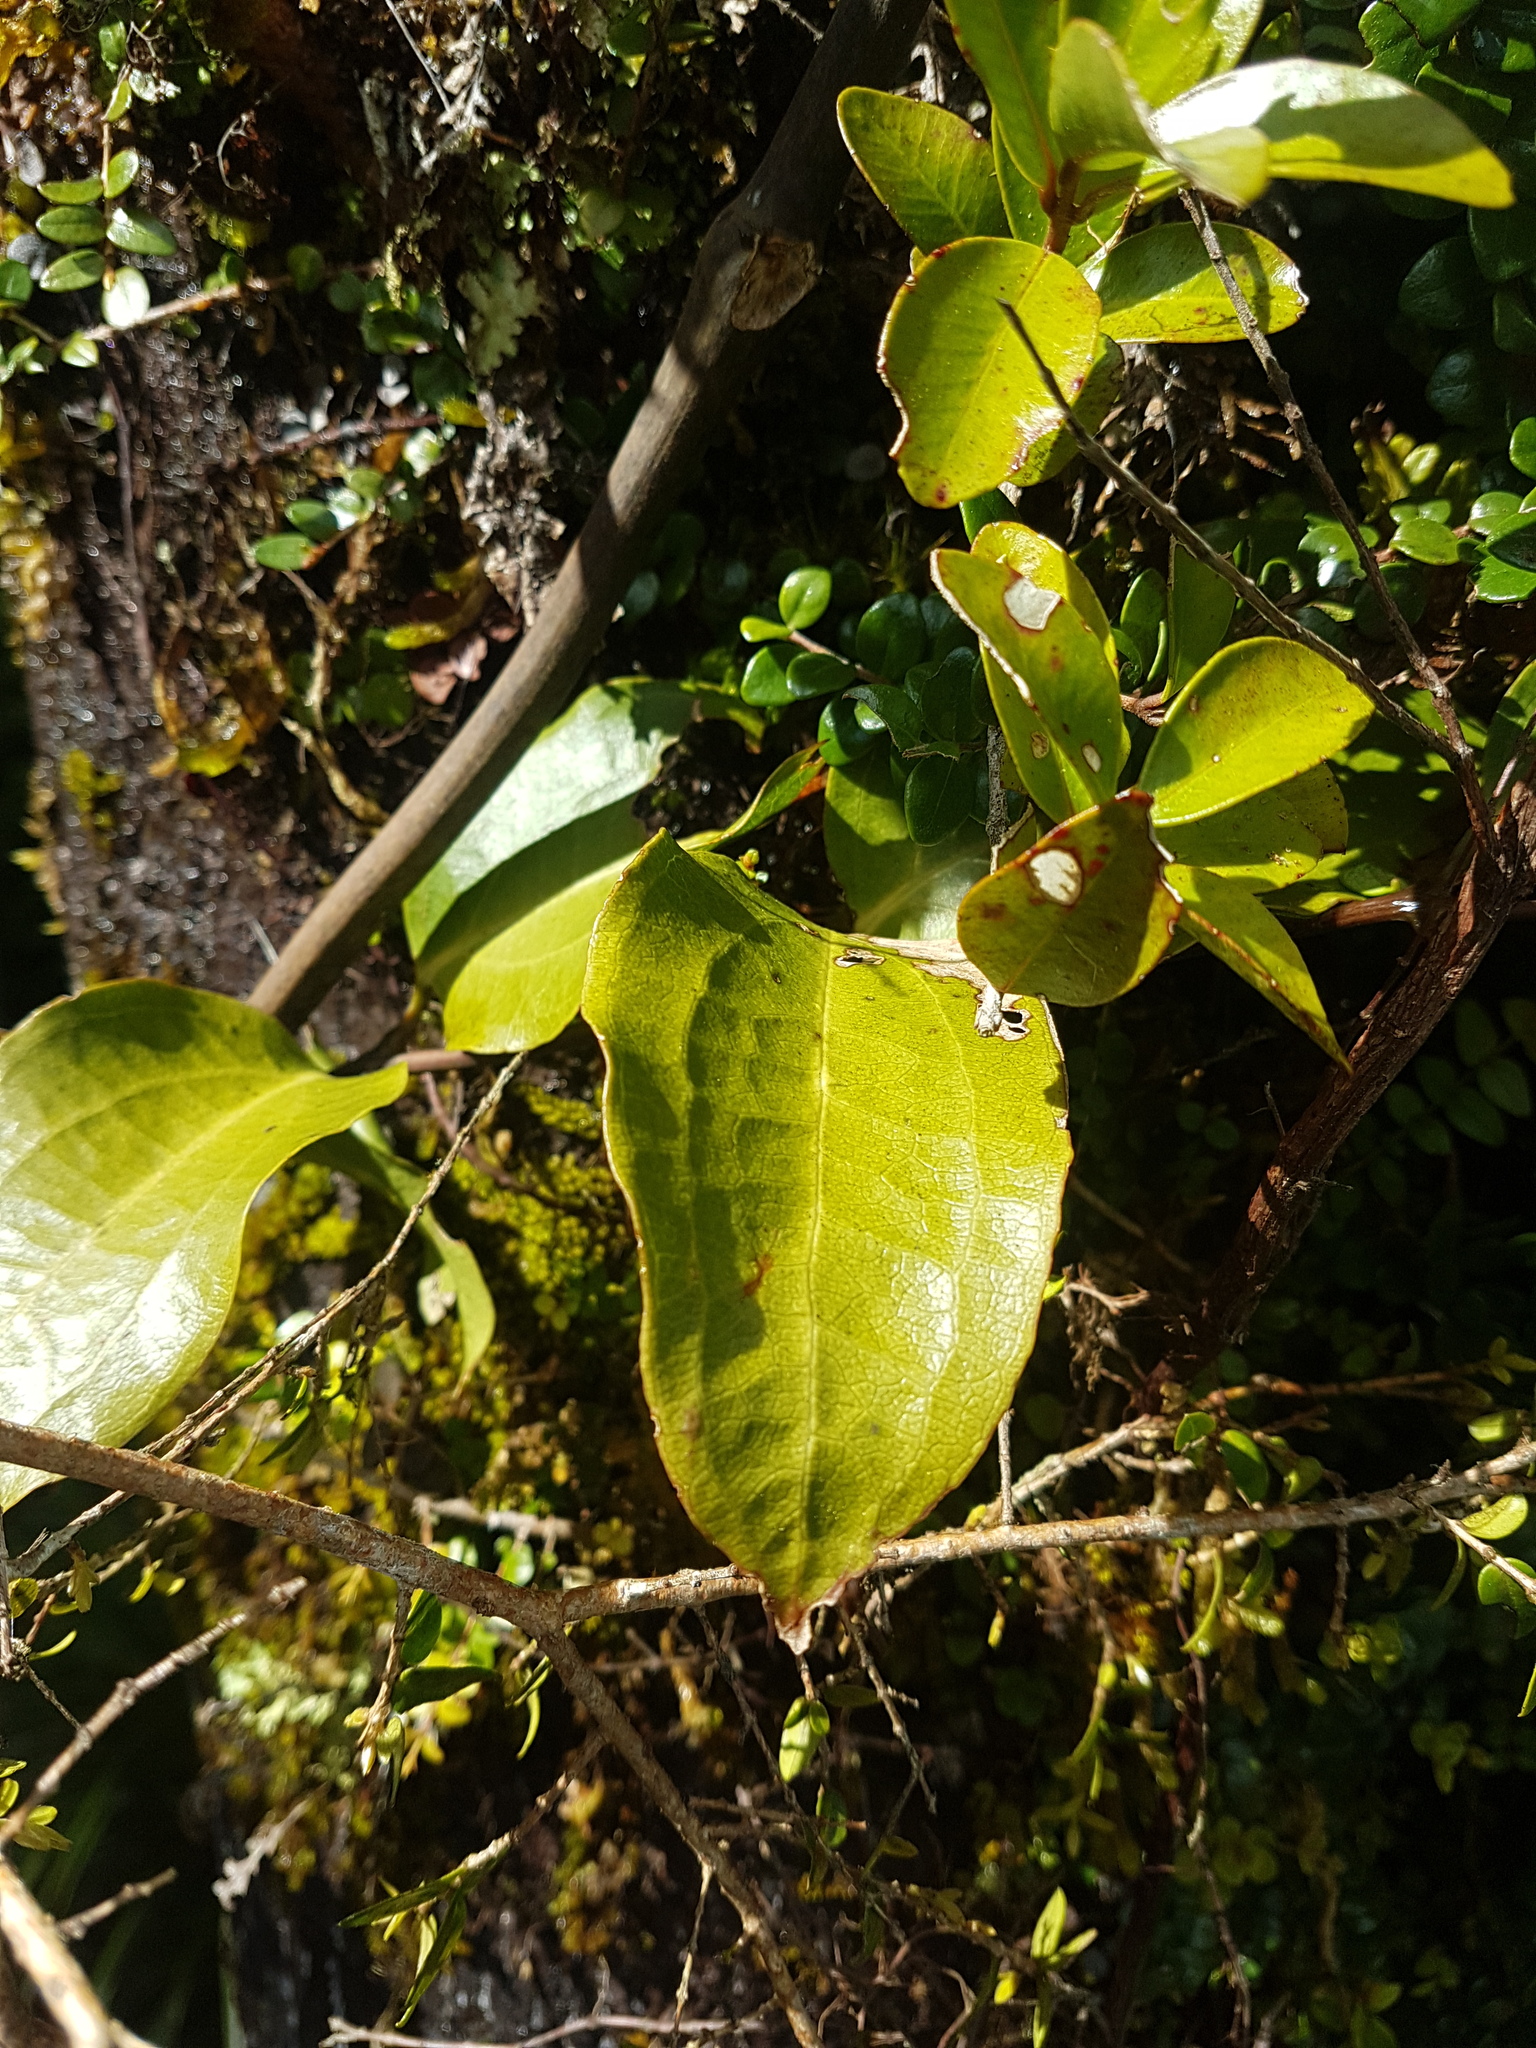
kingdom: Plantae
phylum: Tracheophyta
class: Liliopsida
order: Liliales
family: Ripogonaceae
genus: Ripogonum
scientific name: Ripogonum scandens
